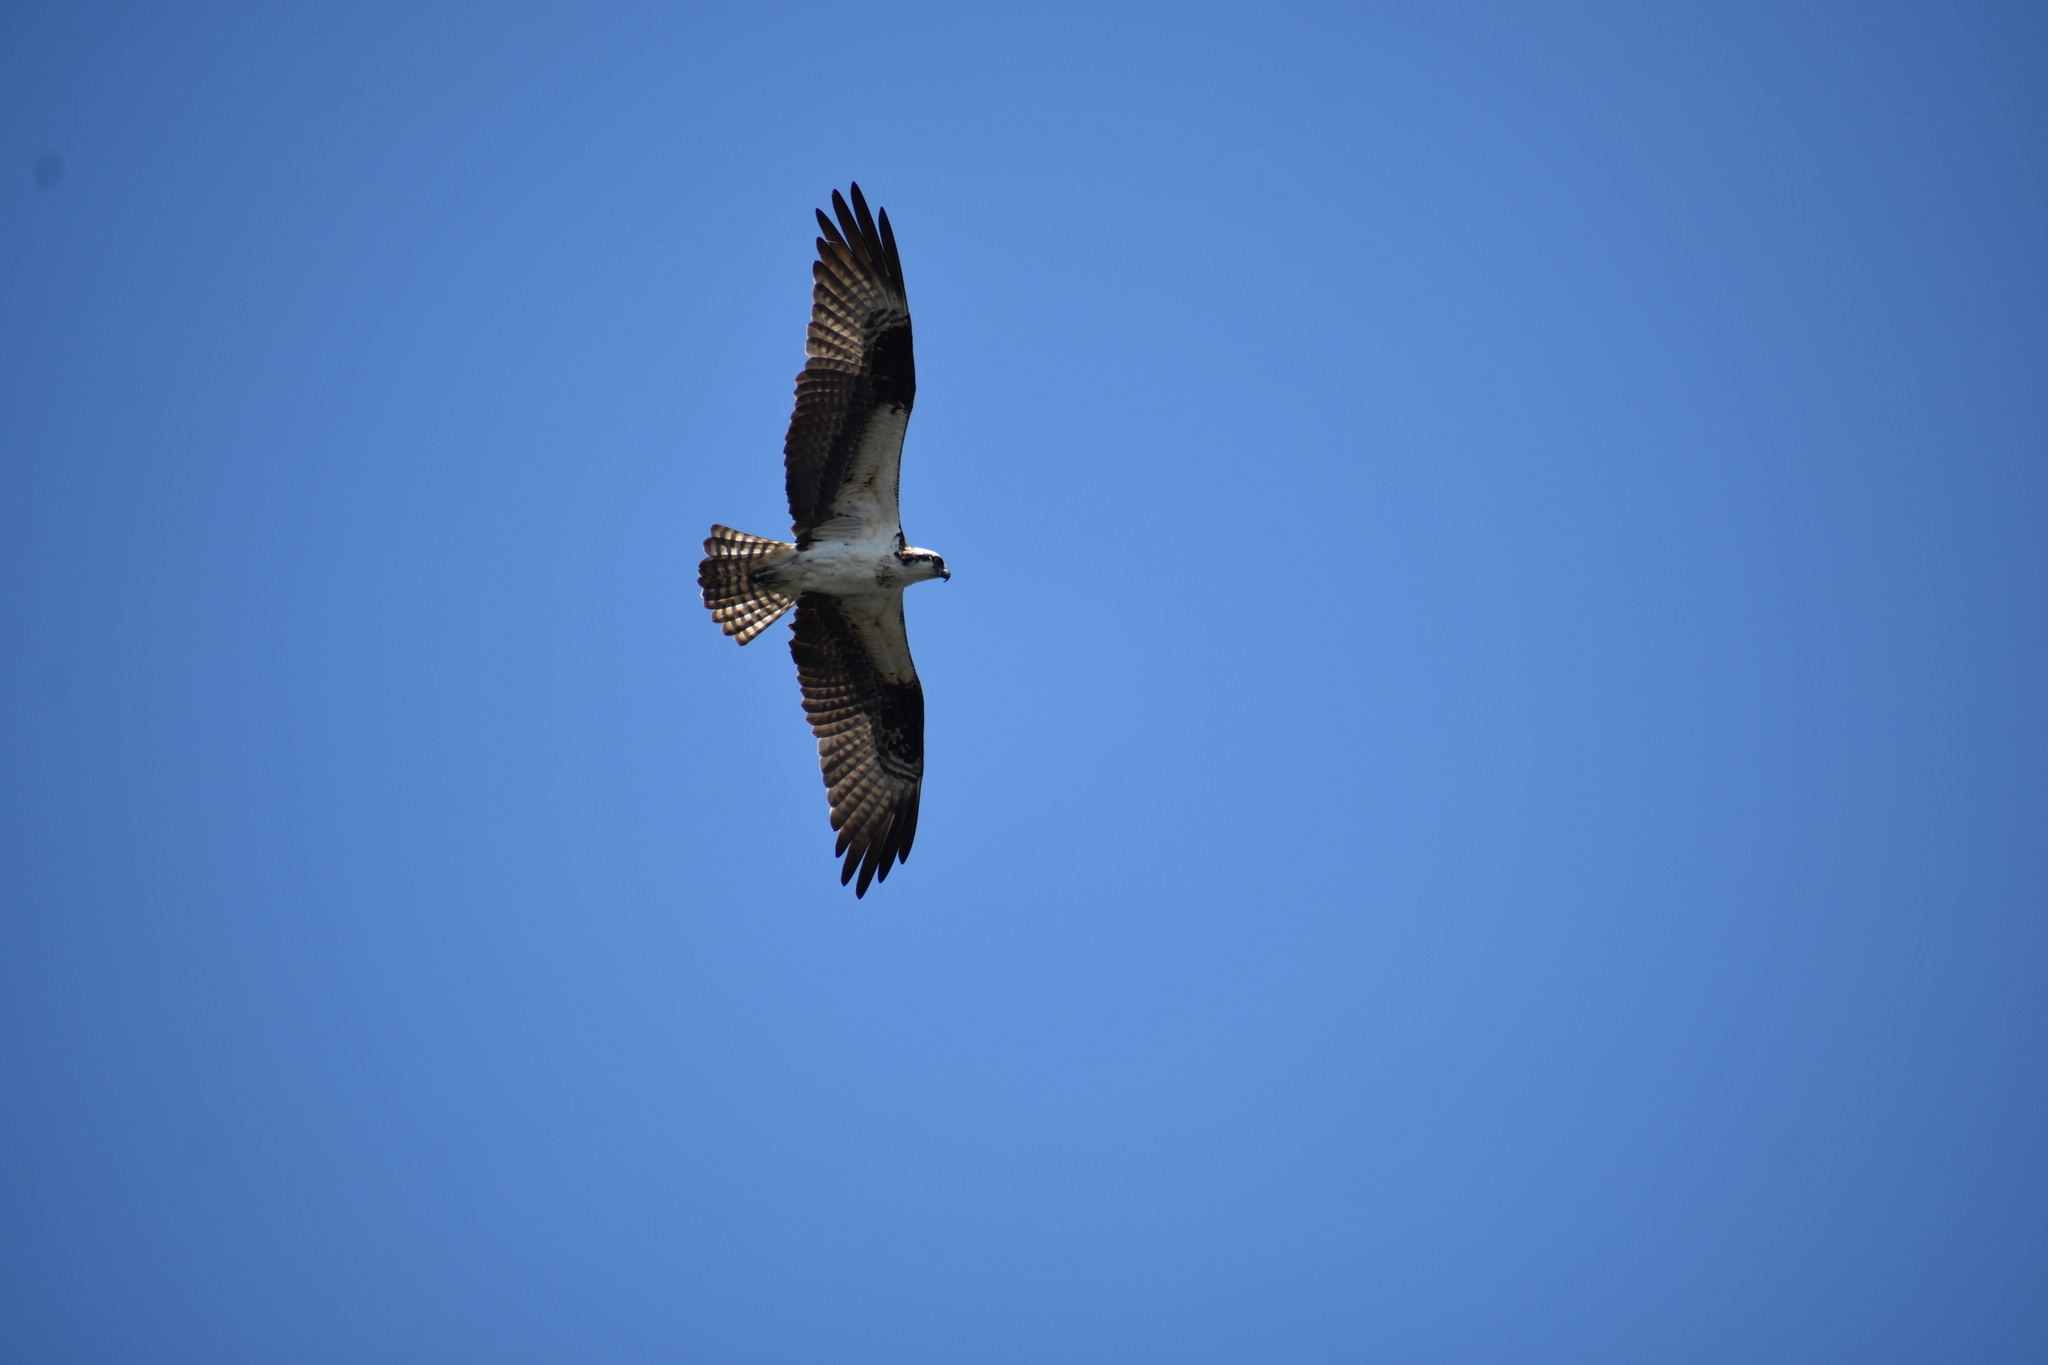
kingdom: Animalia
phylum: Chordata
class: Aves
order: Accipitriformes
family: Pandionidae
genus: Pandion
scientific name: Pandion haliaetus
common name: Osprey
